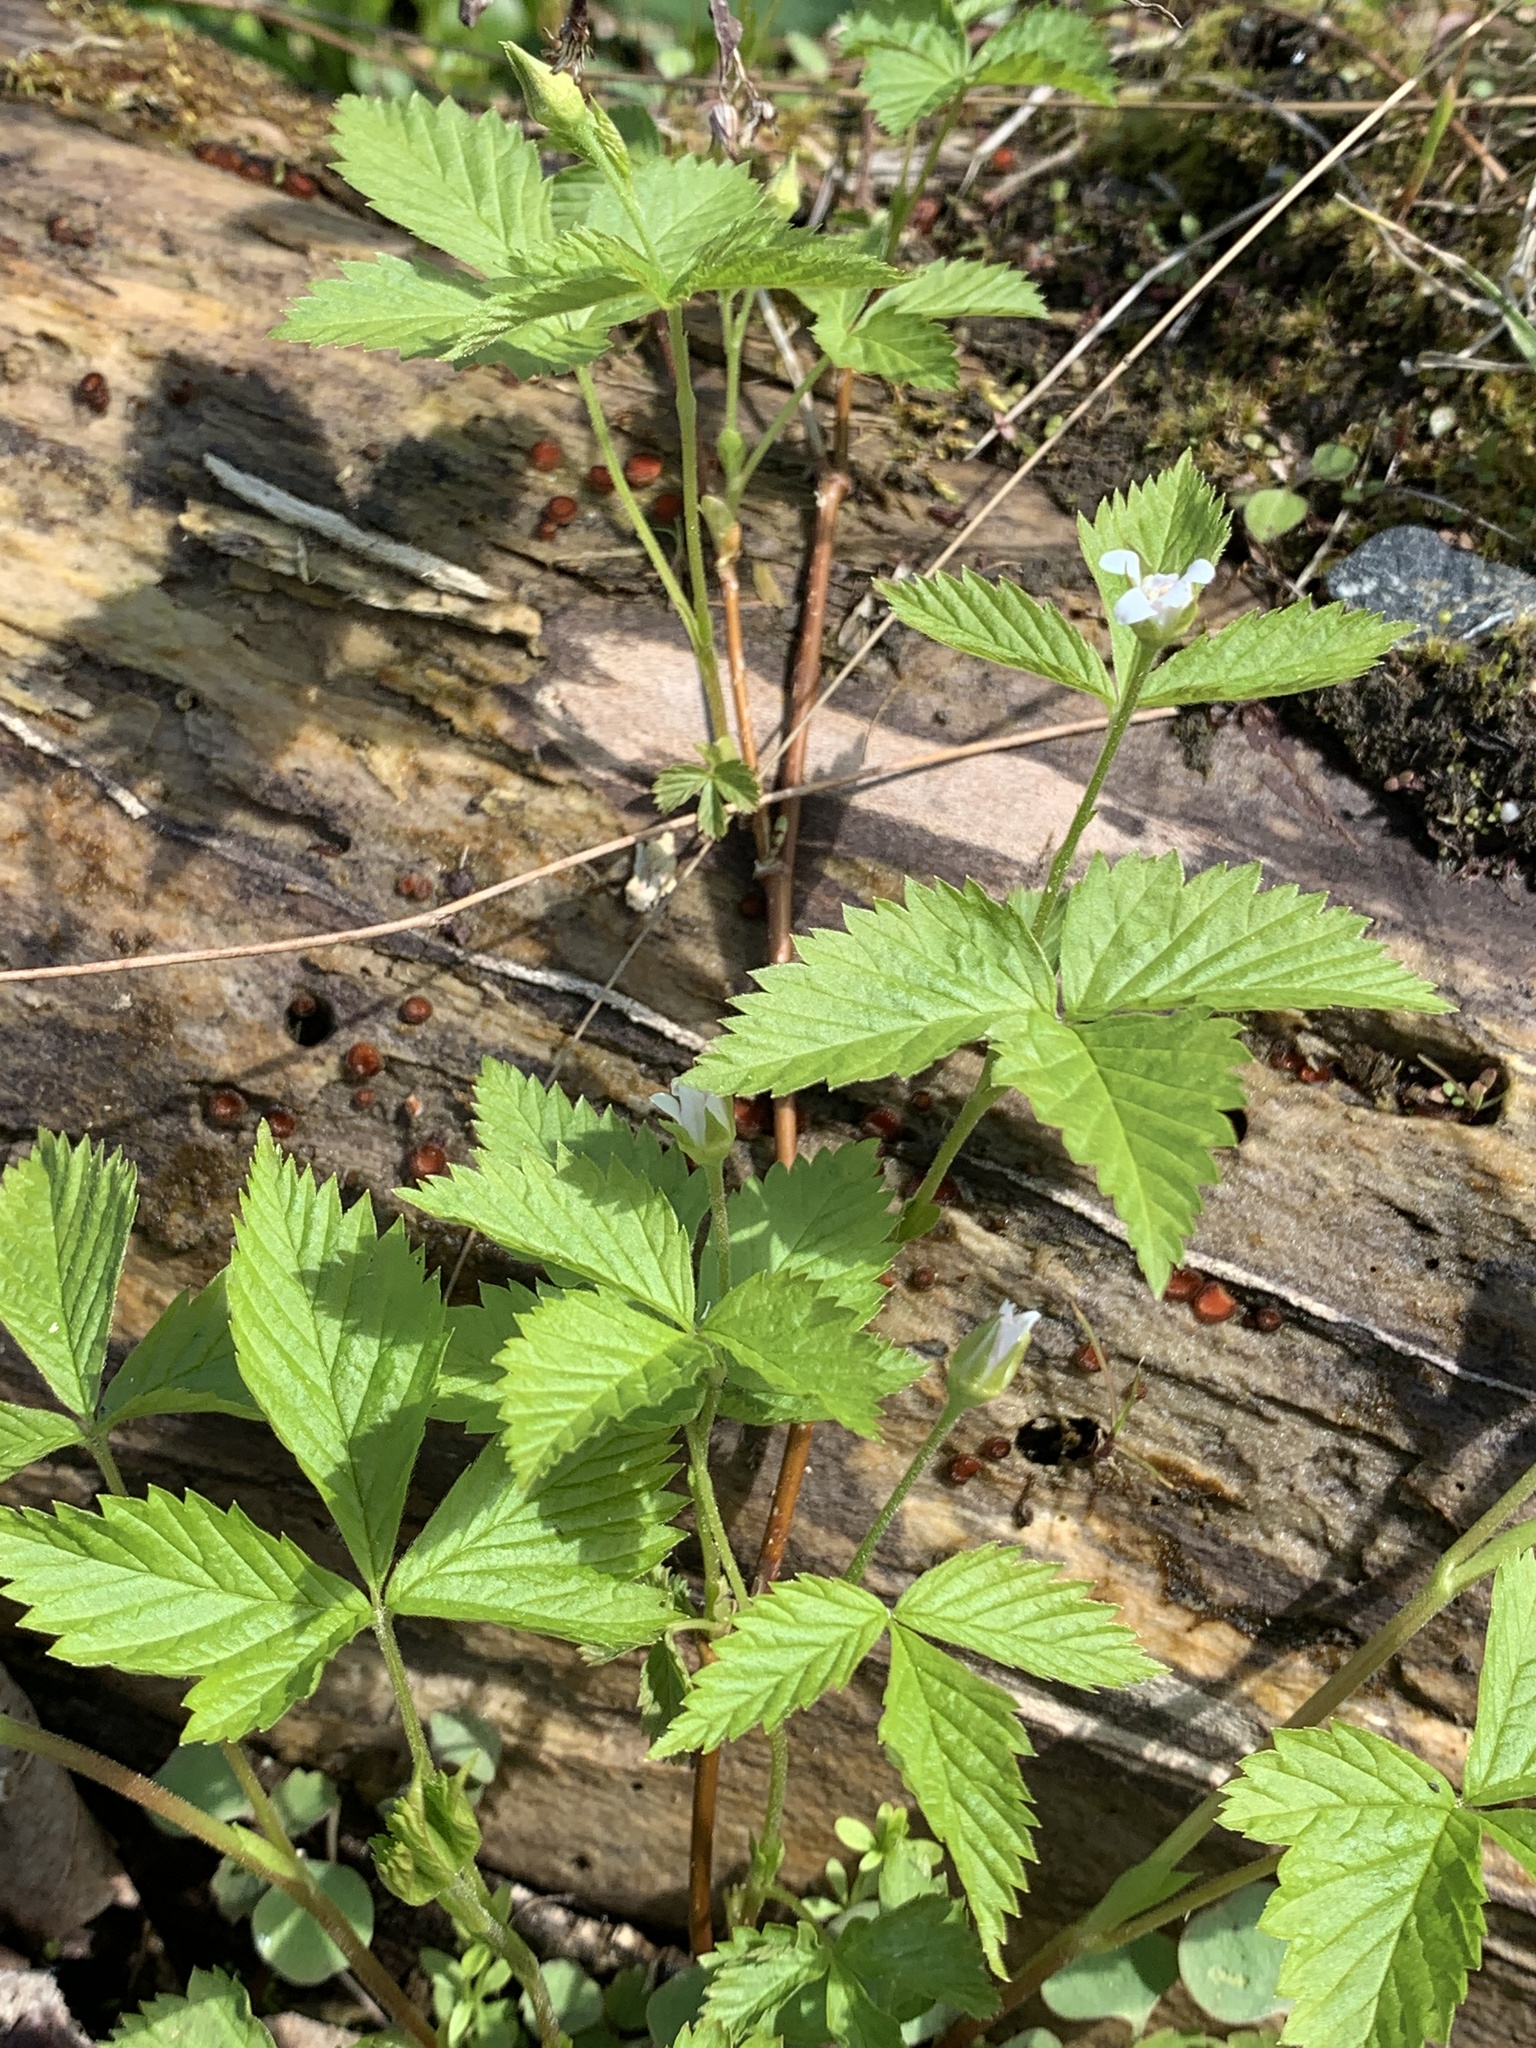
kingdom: Plantae
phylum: Tracheophyta
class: Magnoliopsida
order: Rosales
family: Rosaceae
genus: Rubus
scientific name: Rubus pubescens
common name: Dwarf raspberry
